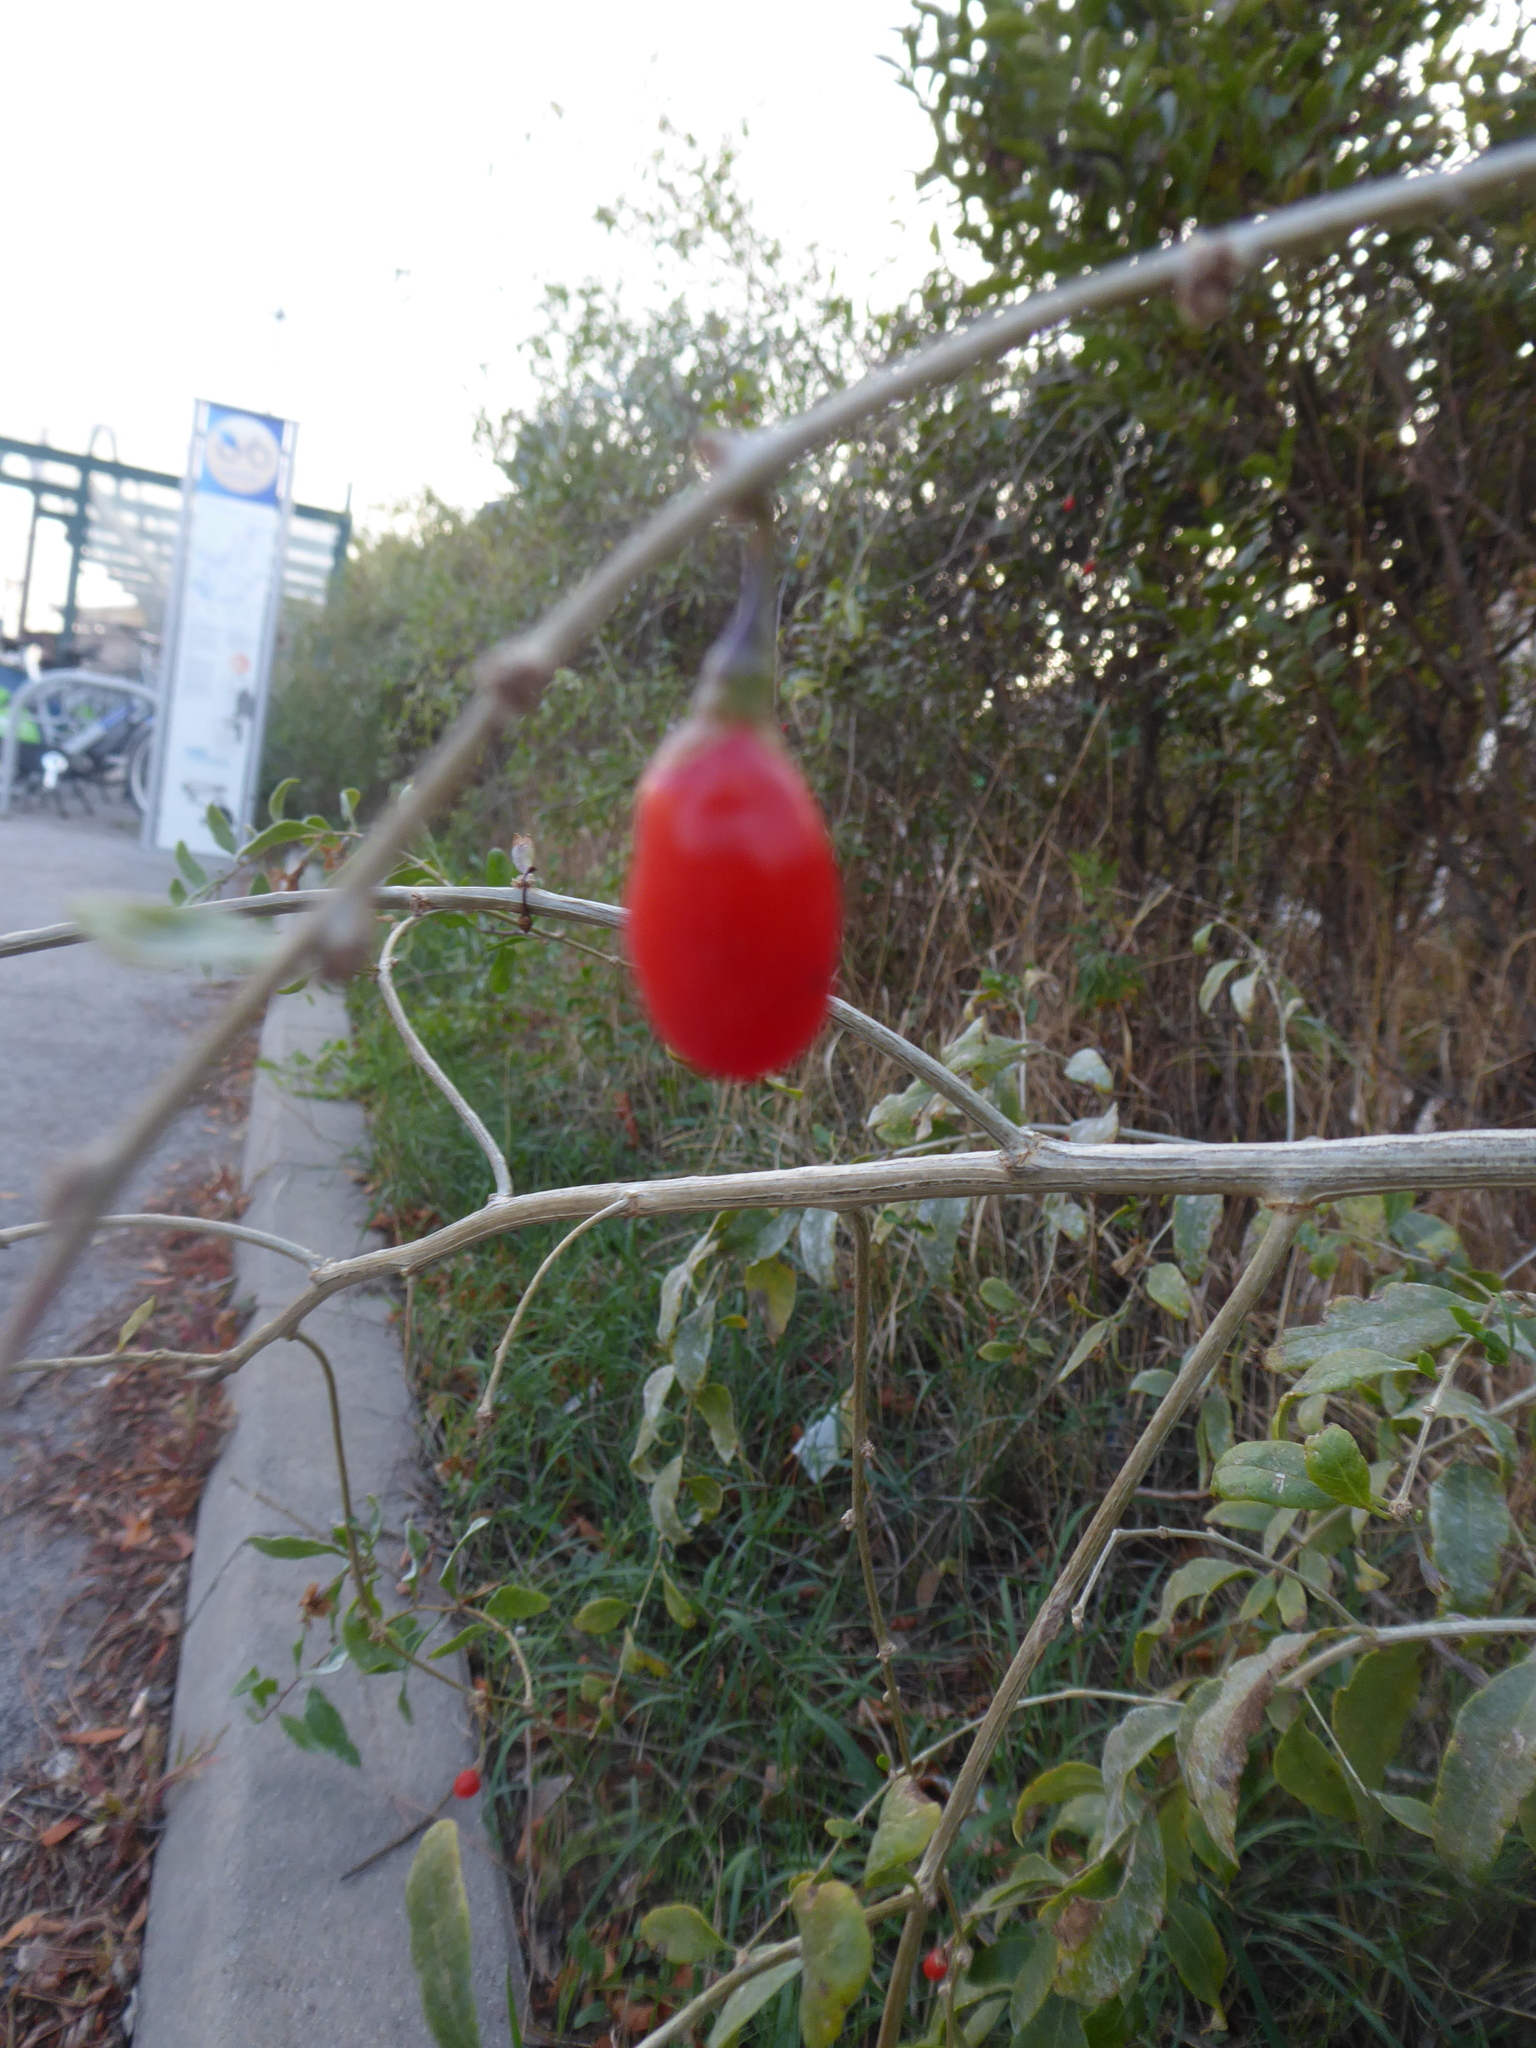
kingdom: Plantae
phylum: Tracheophyta
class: Magnoliopsida
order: Solanales
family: Solanaceae
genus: Lycium
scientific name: Lycium barbarum
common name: Duke of argyll's teaplant
